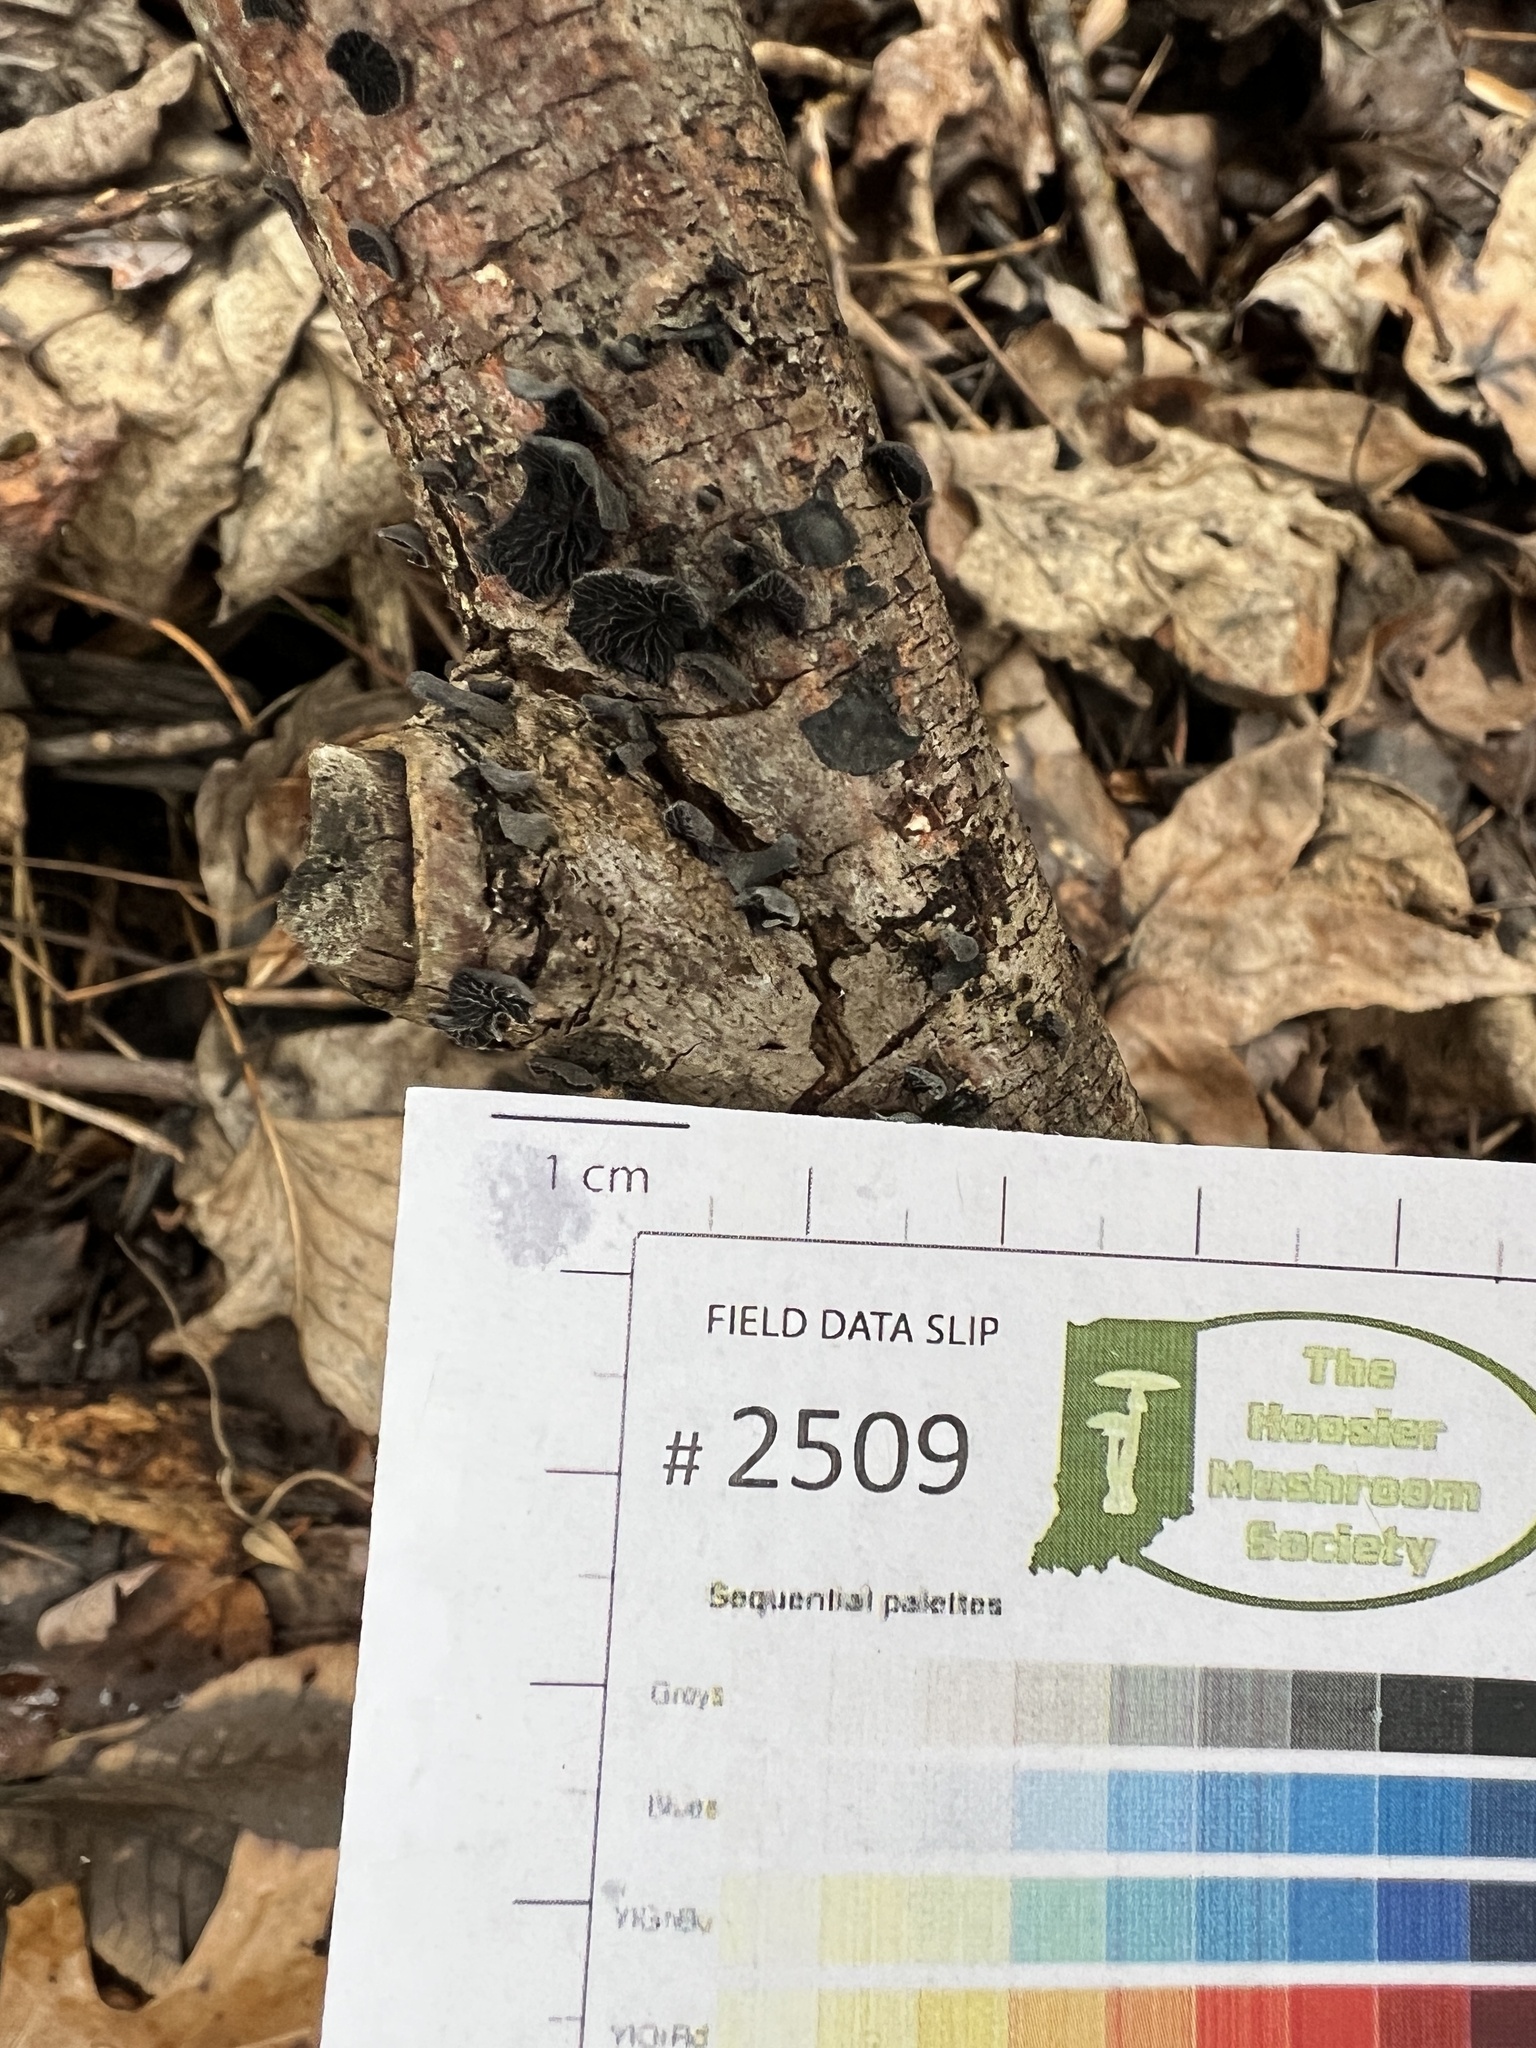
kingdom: Fungi
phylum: Basidiomycota
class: Agaricomycetes
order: Agaricales
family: Pleurotaceae
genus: Resupinatus
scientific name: Resupinatus alboniger
